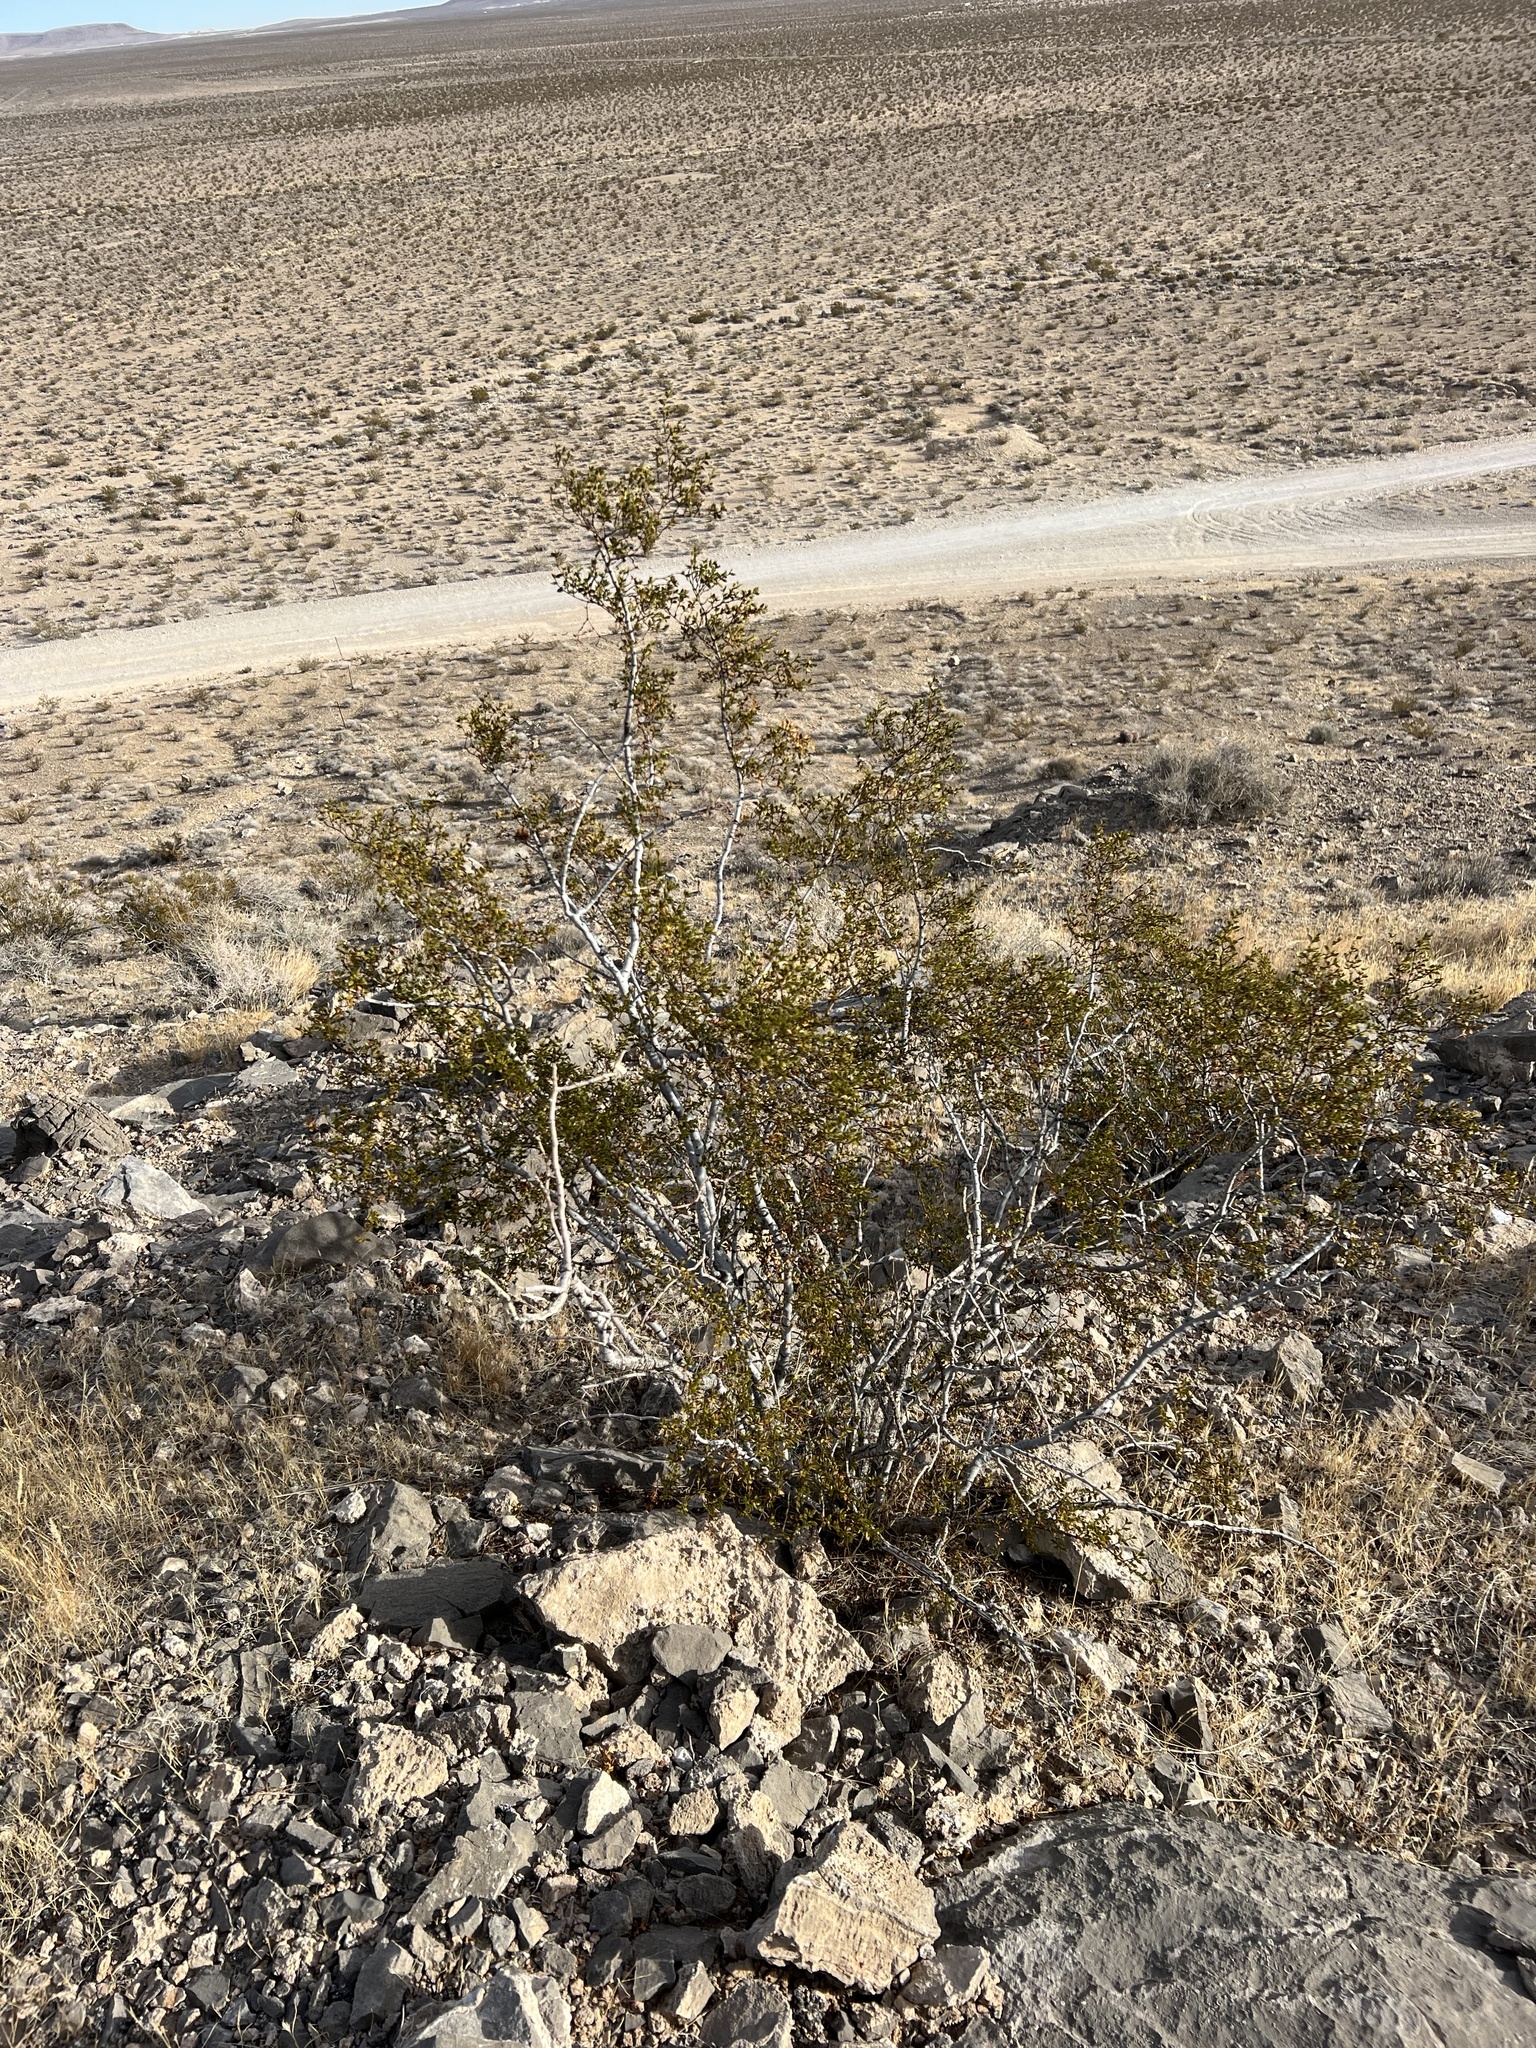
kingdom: Plantae
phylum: Tracheophyta
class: Magnoliopsida
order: Zygophyllales
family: Zygophyllaceae
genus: Larrea
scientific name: Larrea tridentata
